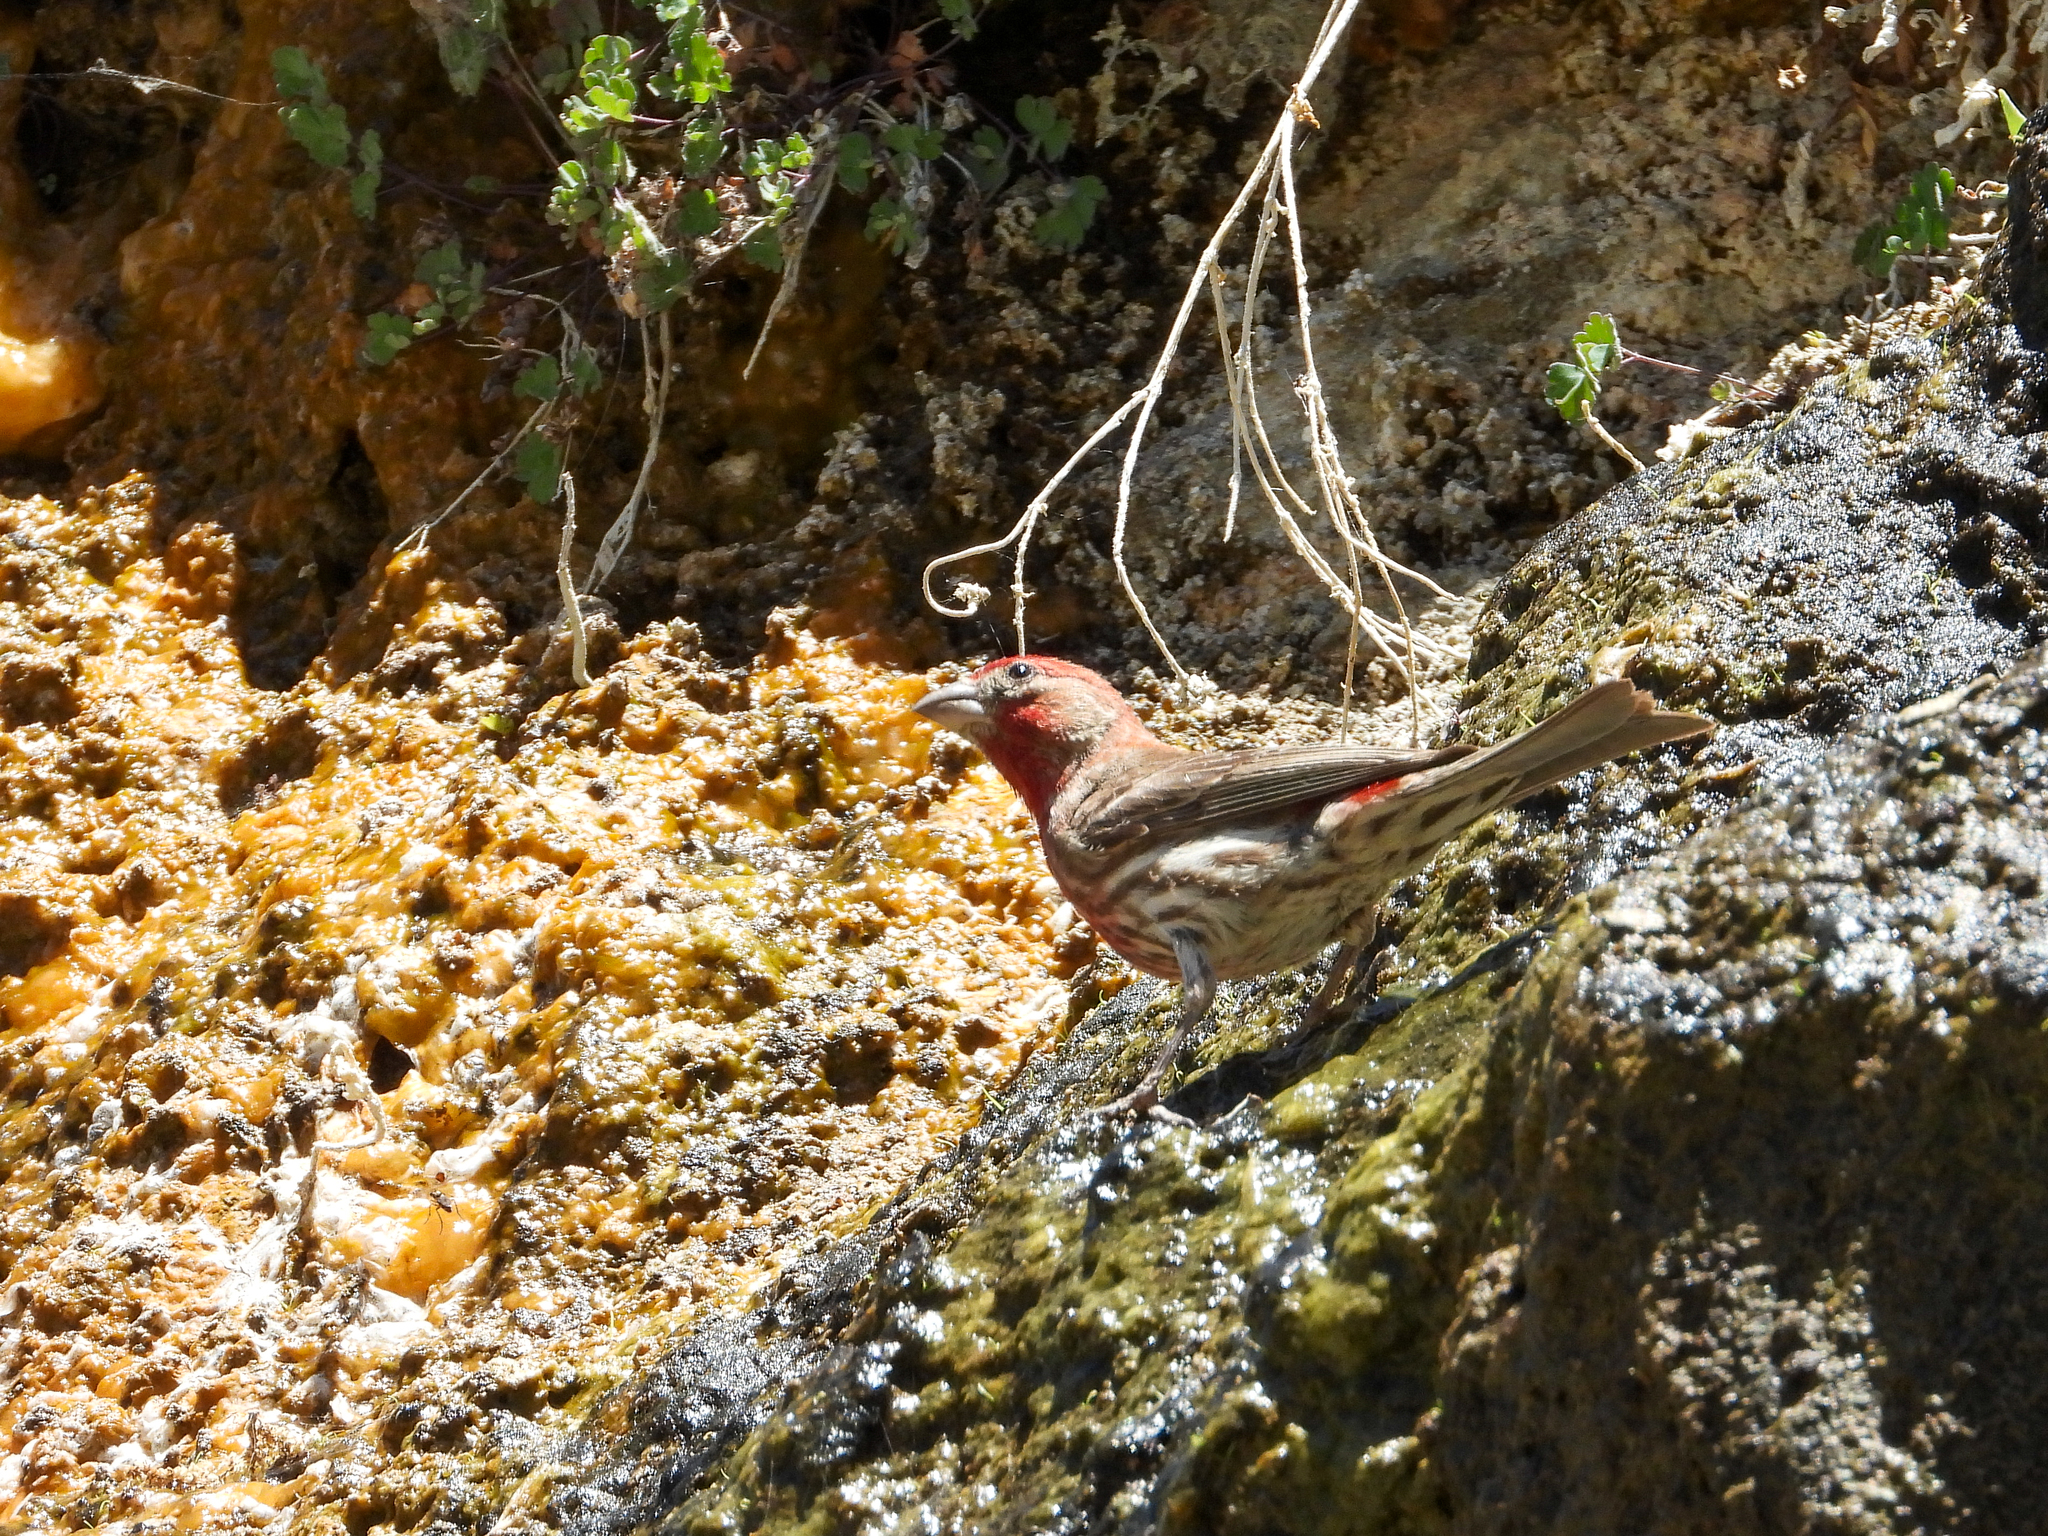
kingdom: Animalia
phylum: Chordata
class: Aves
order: Passeriformes
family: Fringillidae
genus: Haemorhous
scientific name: Haemorhous mexicanus
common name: House finch
